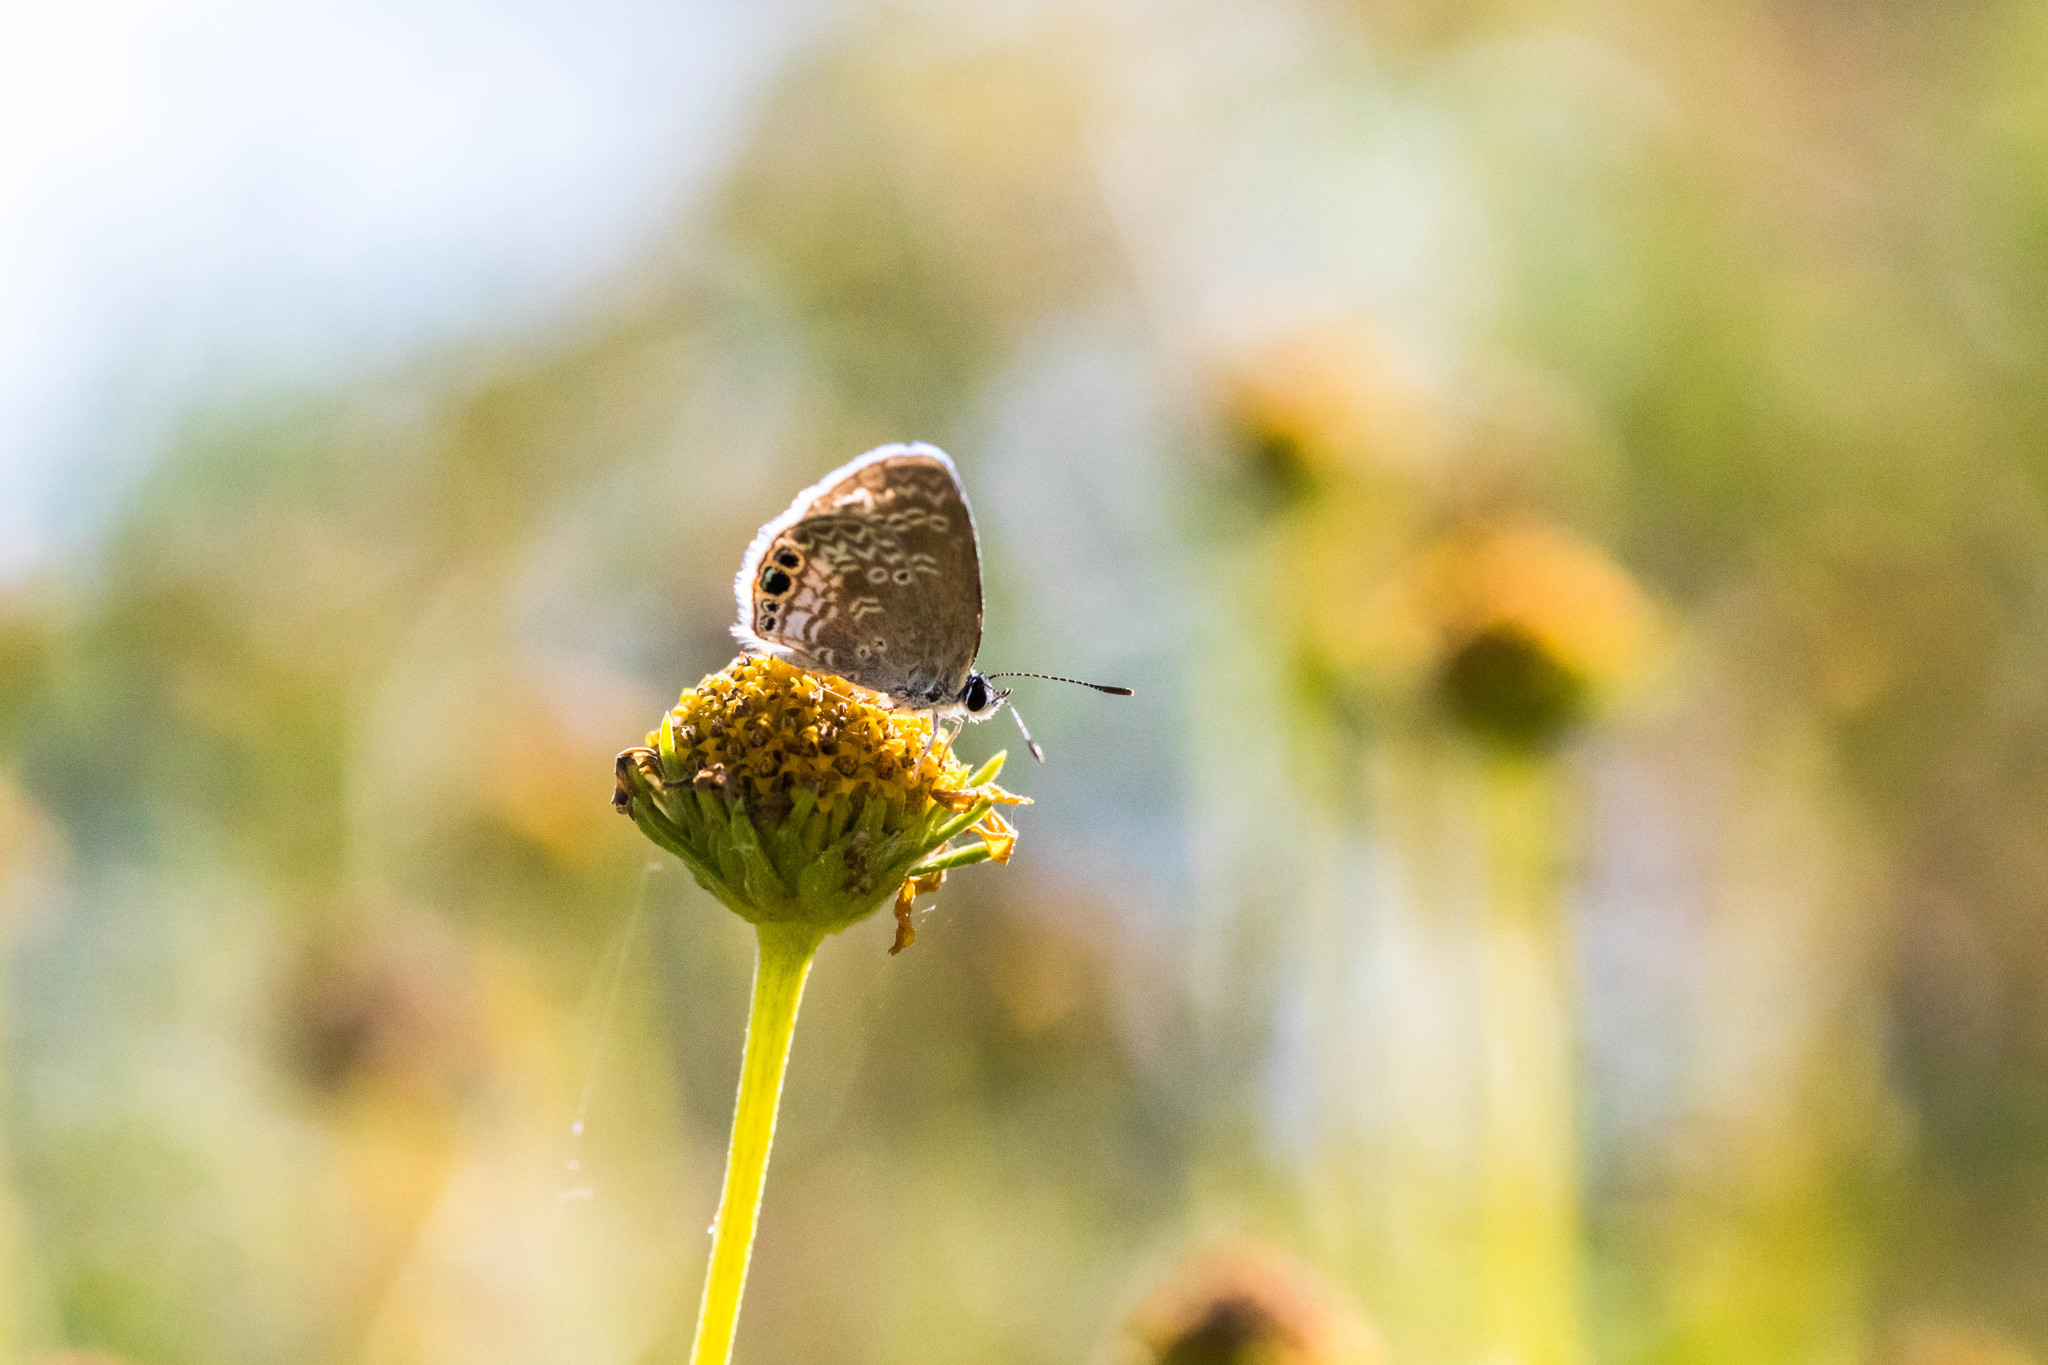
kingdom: Animalia
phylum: Arthropoda
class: Insecta
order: Lepidoptera
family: Lycaenidae
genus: Hemiargus
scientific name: Hemiargus ceraunus
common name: Ceraunus blue
